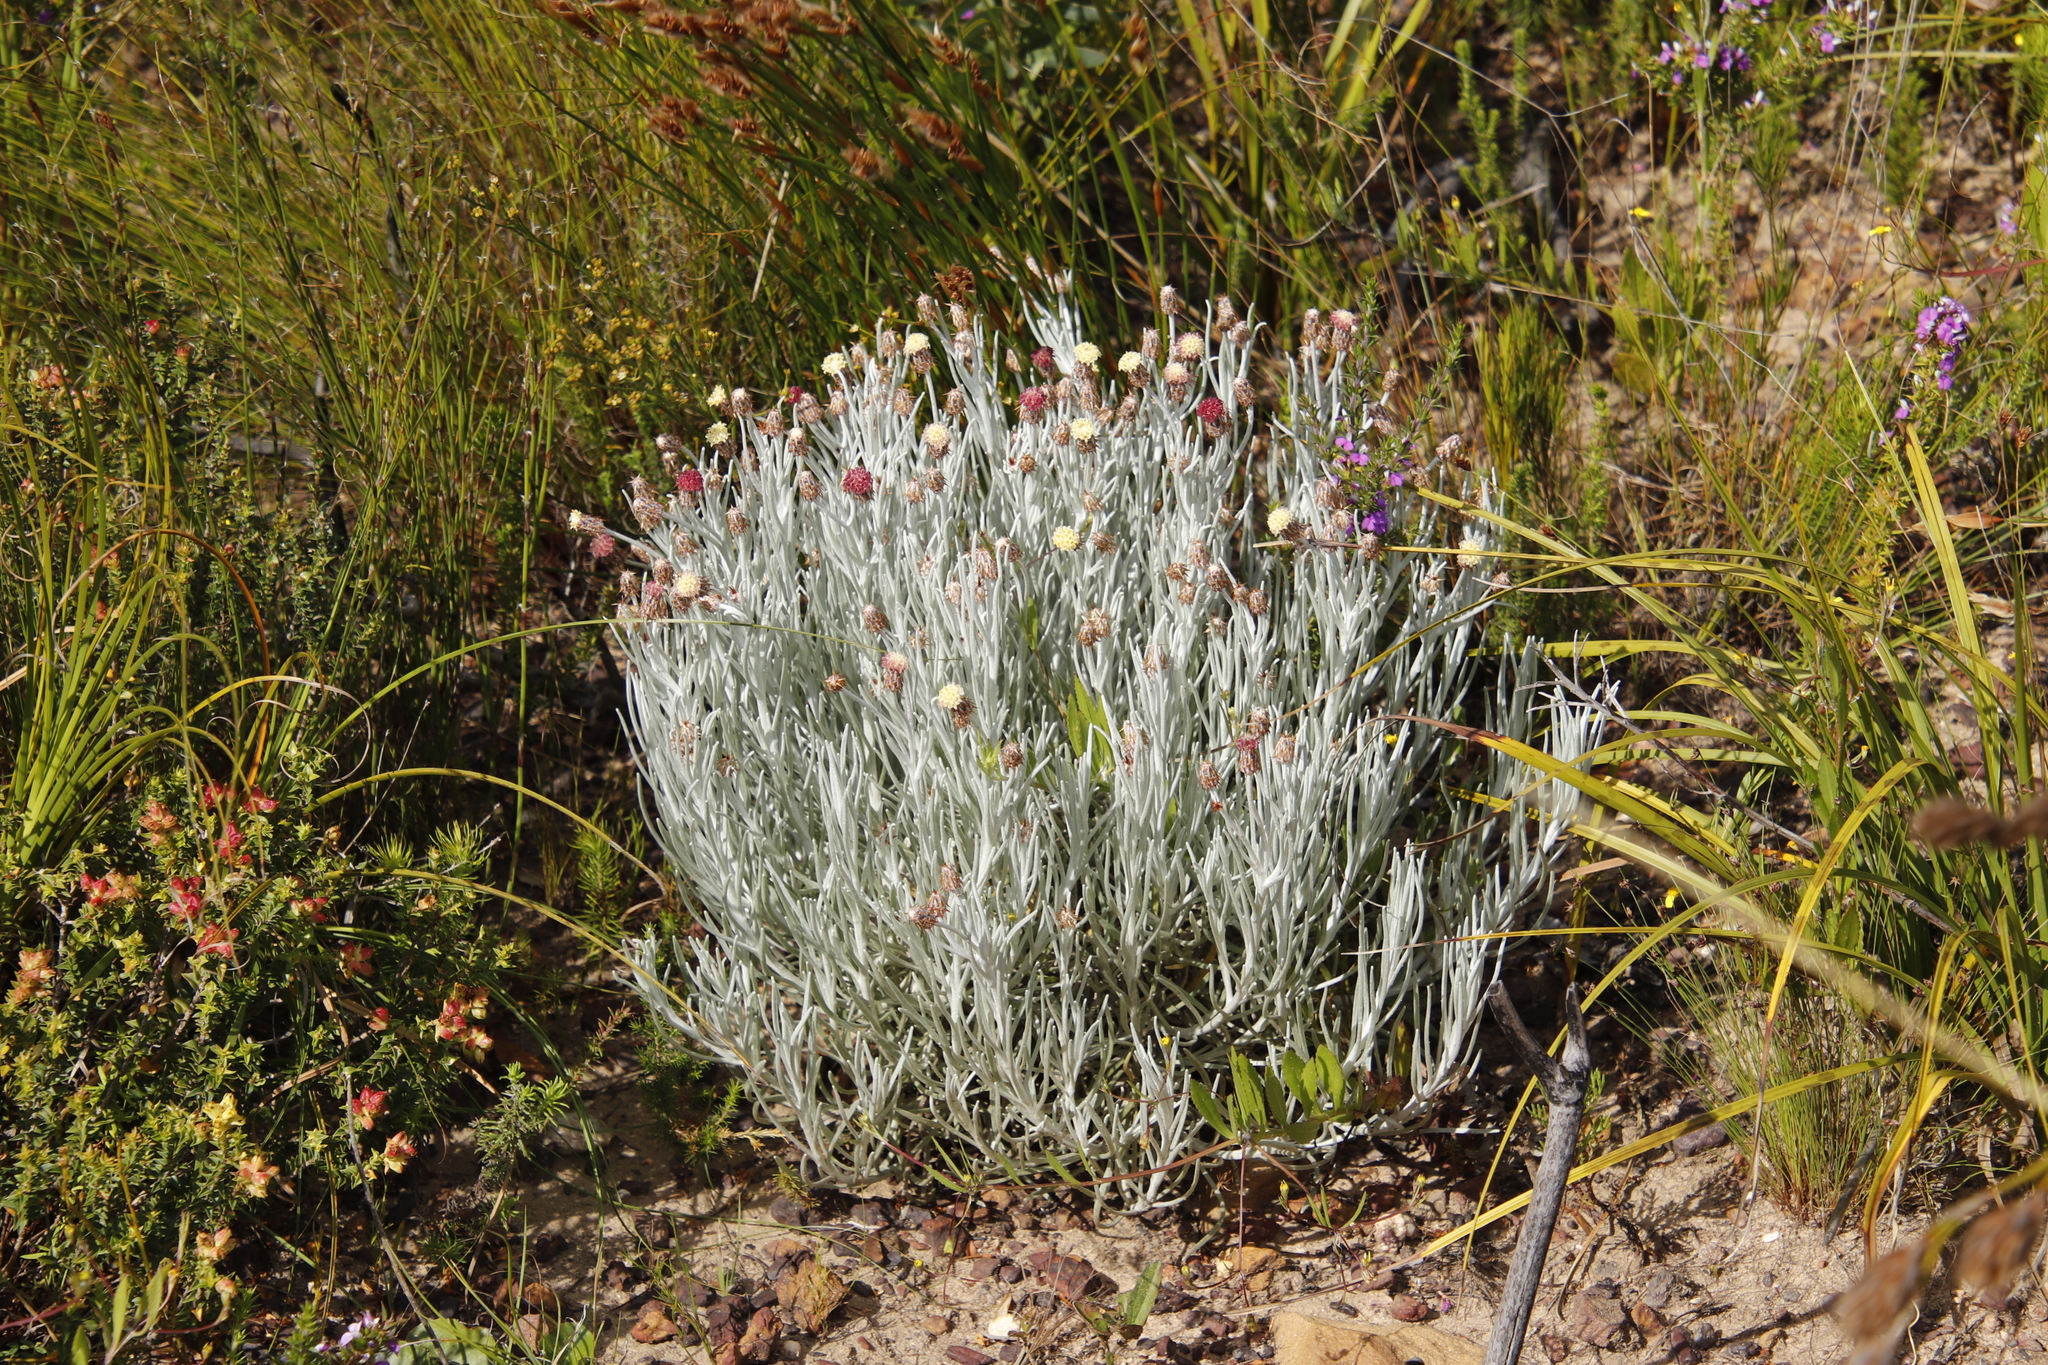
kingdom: Plantae
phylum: Tracheophyta
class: Magnoliopsida
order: Asterales
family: Asteraceae
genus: Syncarpha
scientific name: Syncarpha gnaphaloides
